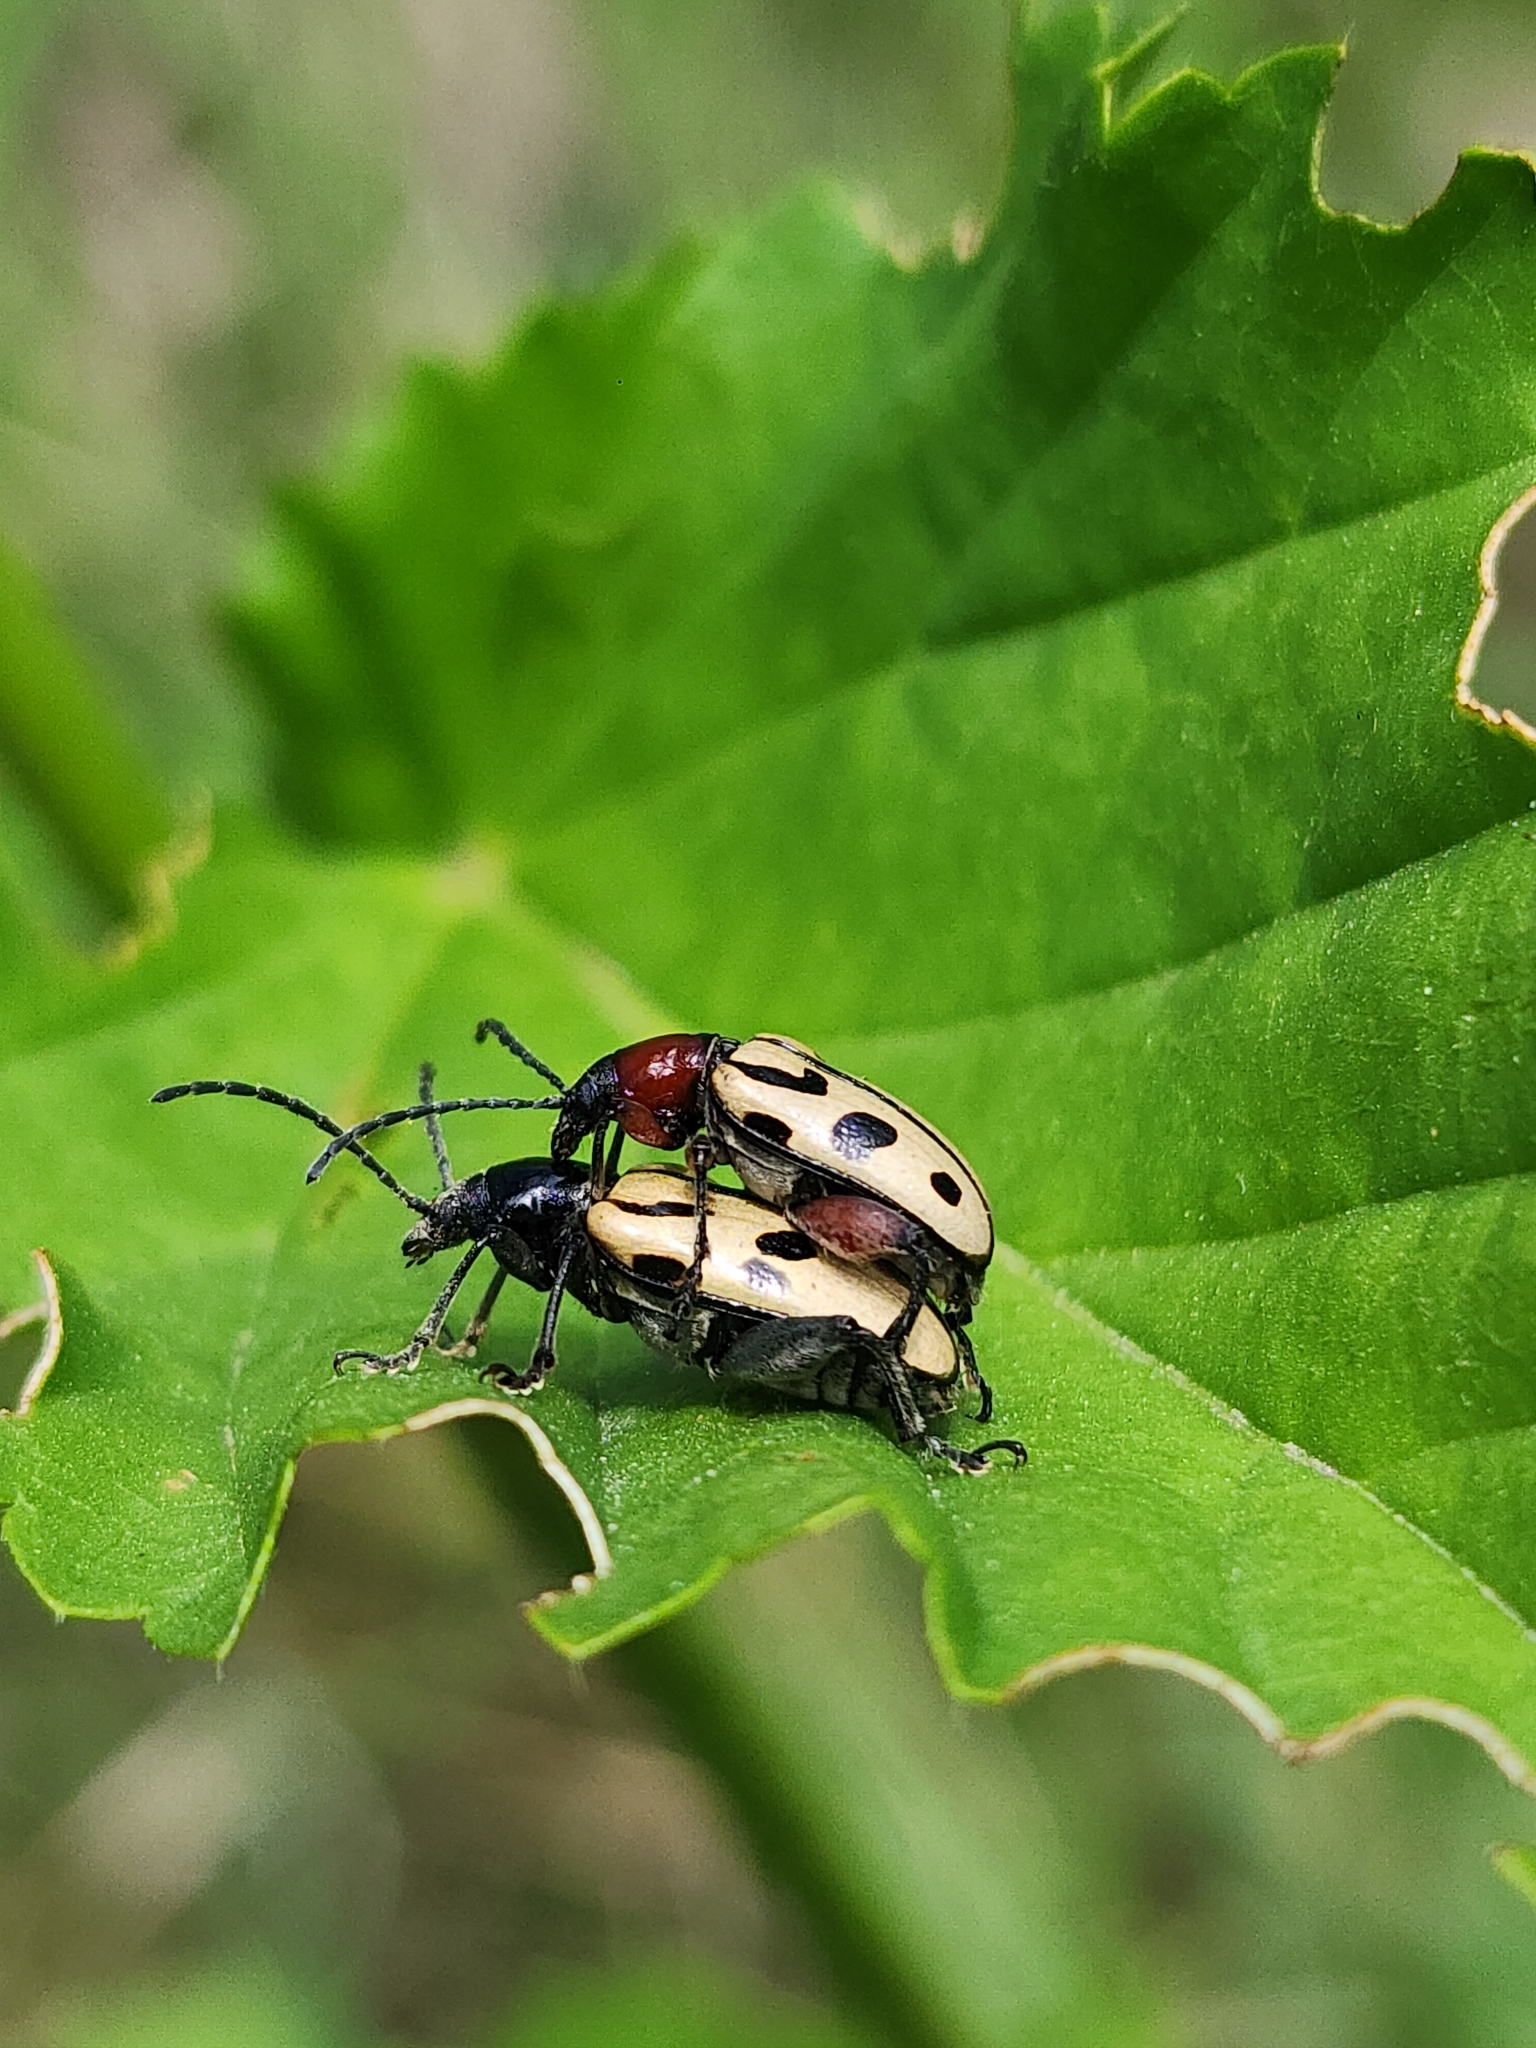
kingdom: Animalia
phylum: Arthropoda
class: Insecta
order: Coleoptera
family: Chrysomelidae
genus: Atalasis
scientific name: Atalasis
